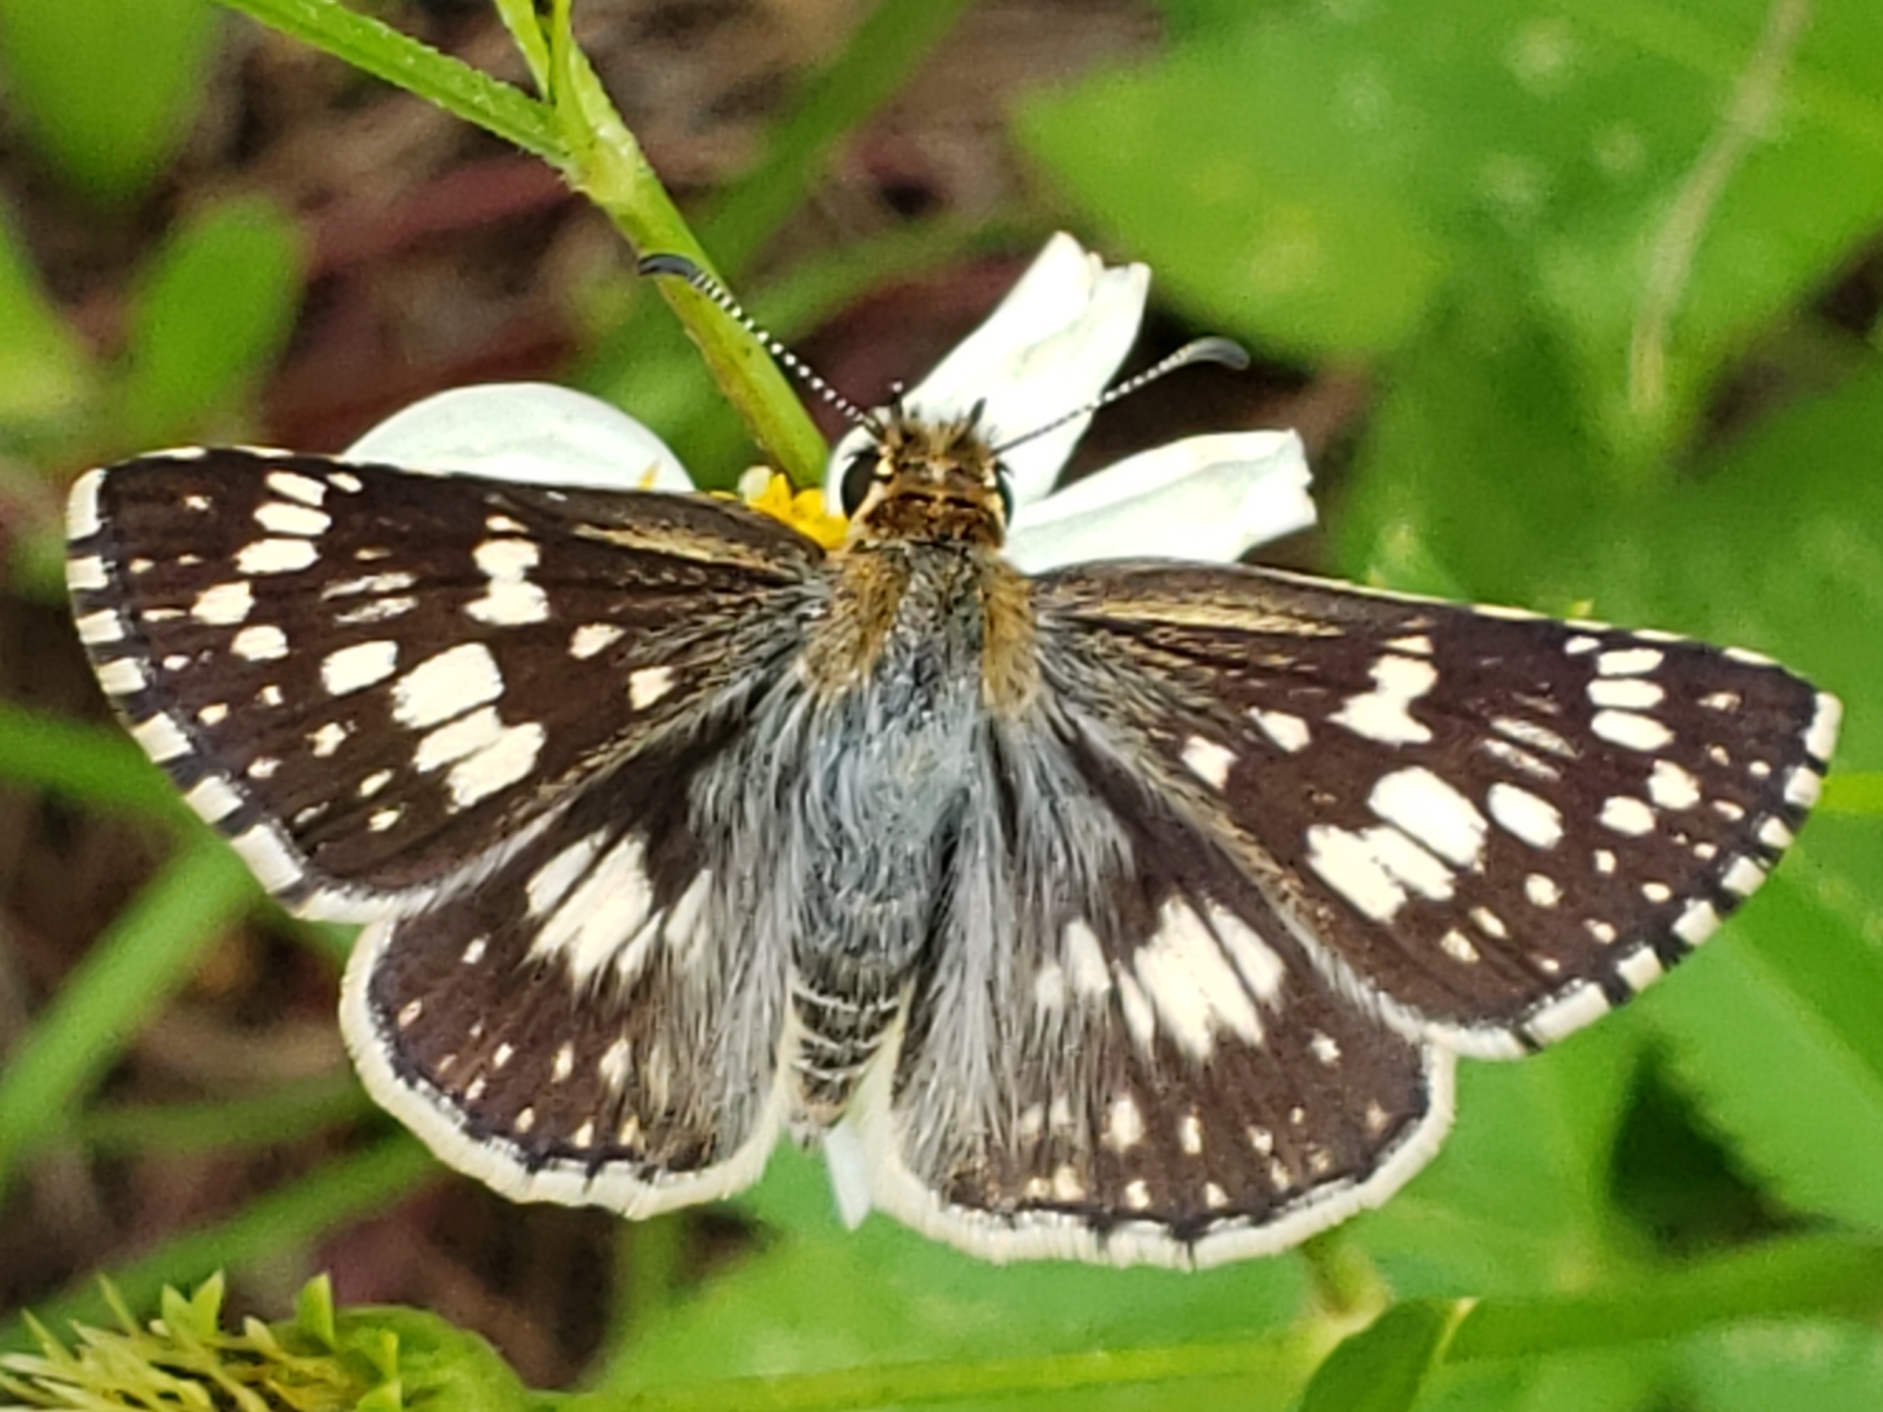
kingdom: Animalia
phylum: Arthropoda
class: Insecta
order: Lepidoptera
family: Hesperiidae
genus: Burnsius
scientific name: Burnsius albezens
